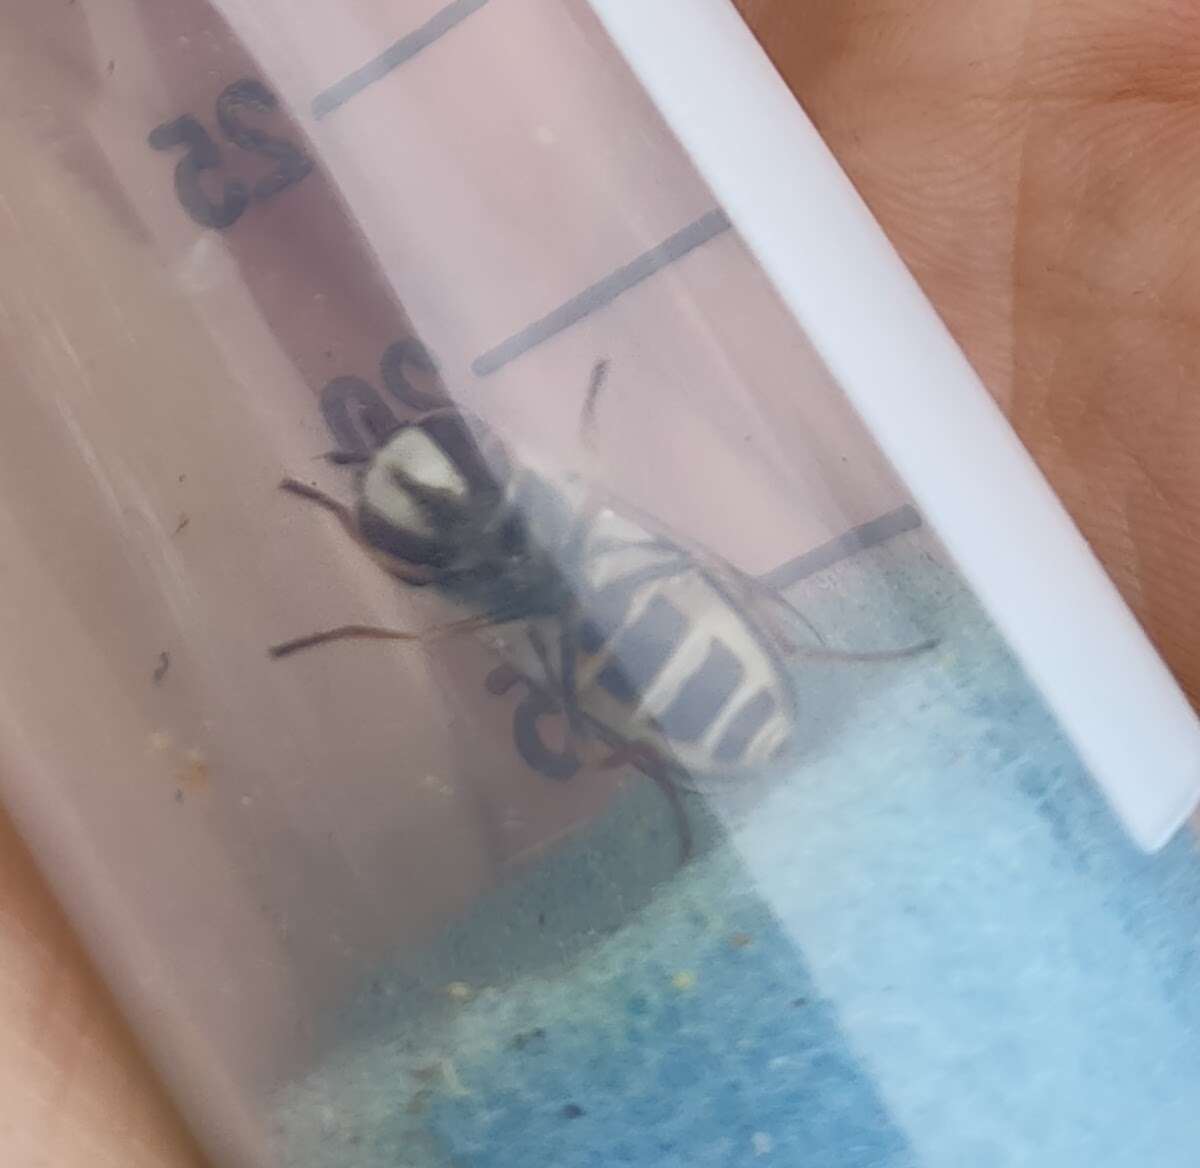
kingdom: Animalia
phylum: Arthropoda
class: Insecta
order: Diptera
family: Syrphidae
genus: Scaeva
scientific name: Scaeva pyrastri
